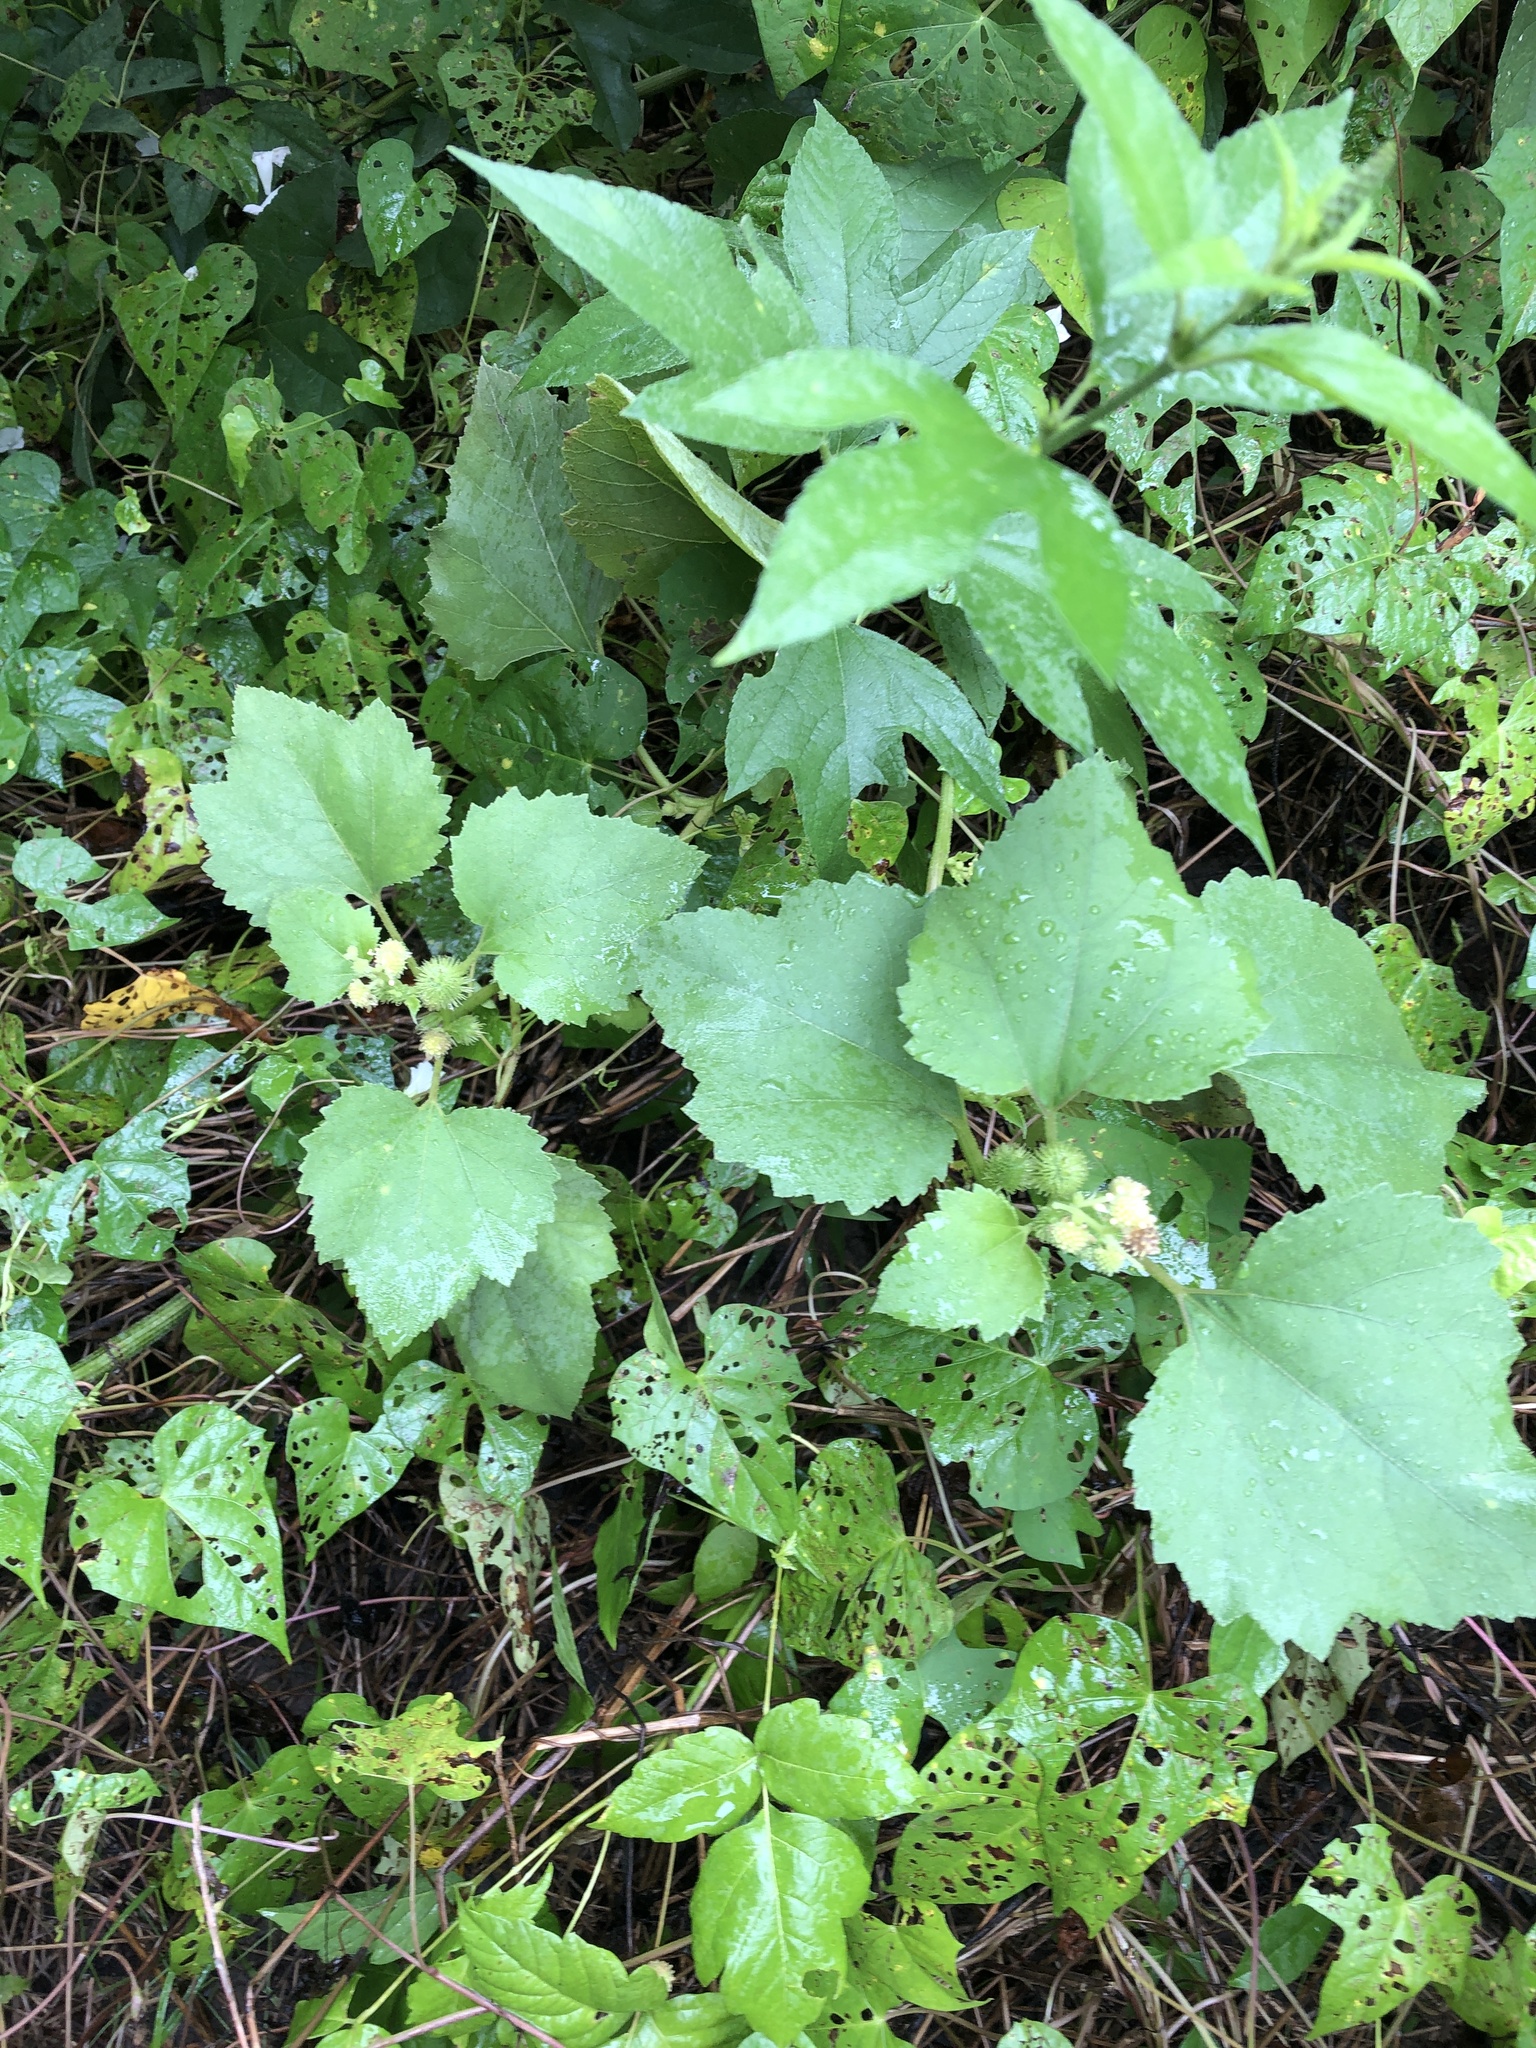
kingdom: Plantae
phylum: Tracheophyta
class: Magnoliopsida
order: Asterales
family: Asteraceae
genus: Xanthium
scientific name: Xanthium strumarium
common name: Rough cocklebur
